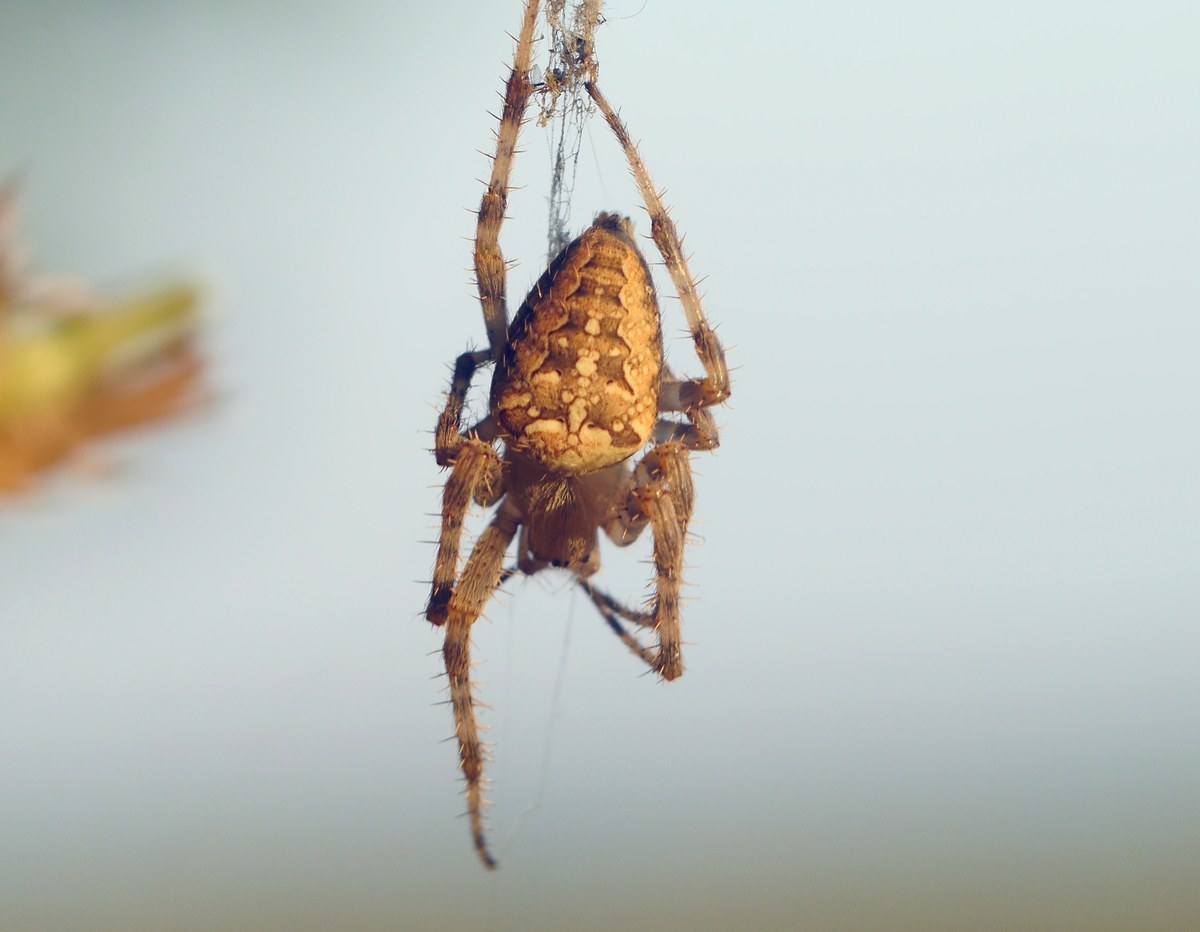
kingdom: Animalia
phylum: Arthropoda
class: Arachnida
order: Araneae
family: Araneidae
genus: Araneus
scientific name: Araneus diadematus
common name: Cross orbweaver
